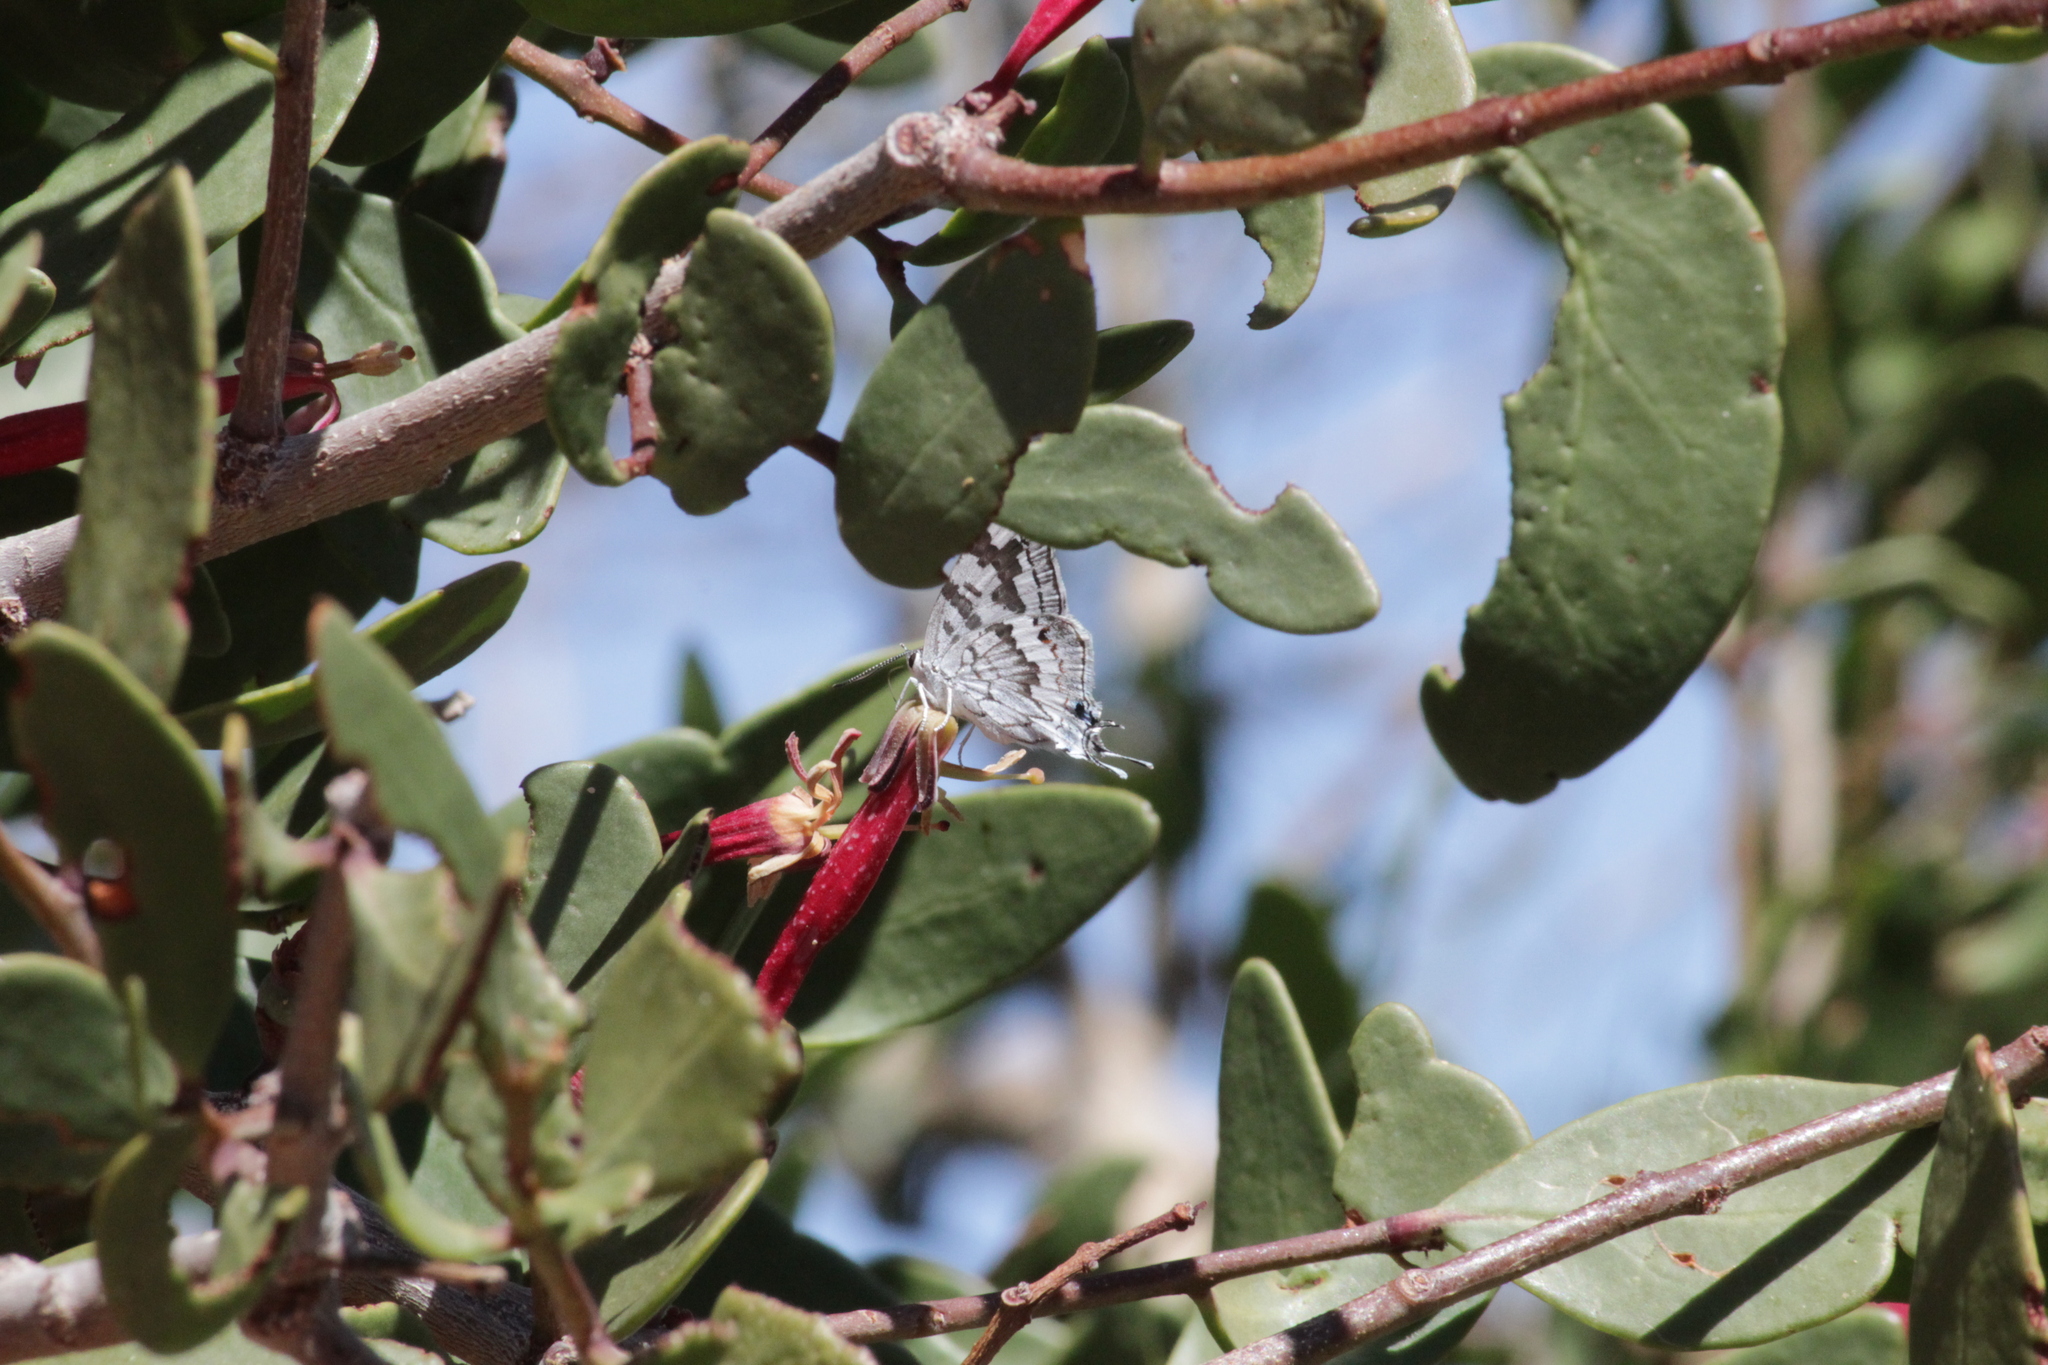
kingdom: Animalia
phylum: Arthropoda
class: Insecta
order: Lepidoptera
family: Lycaenidae
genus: Stugeta
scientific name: Stugeta subinfuscata
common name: Dusky marbled sapphire
